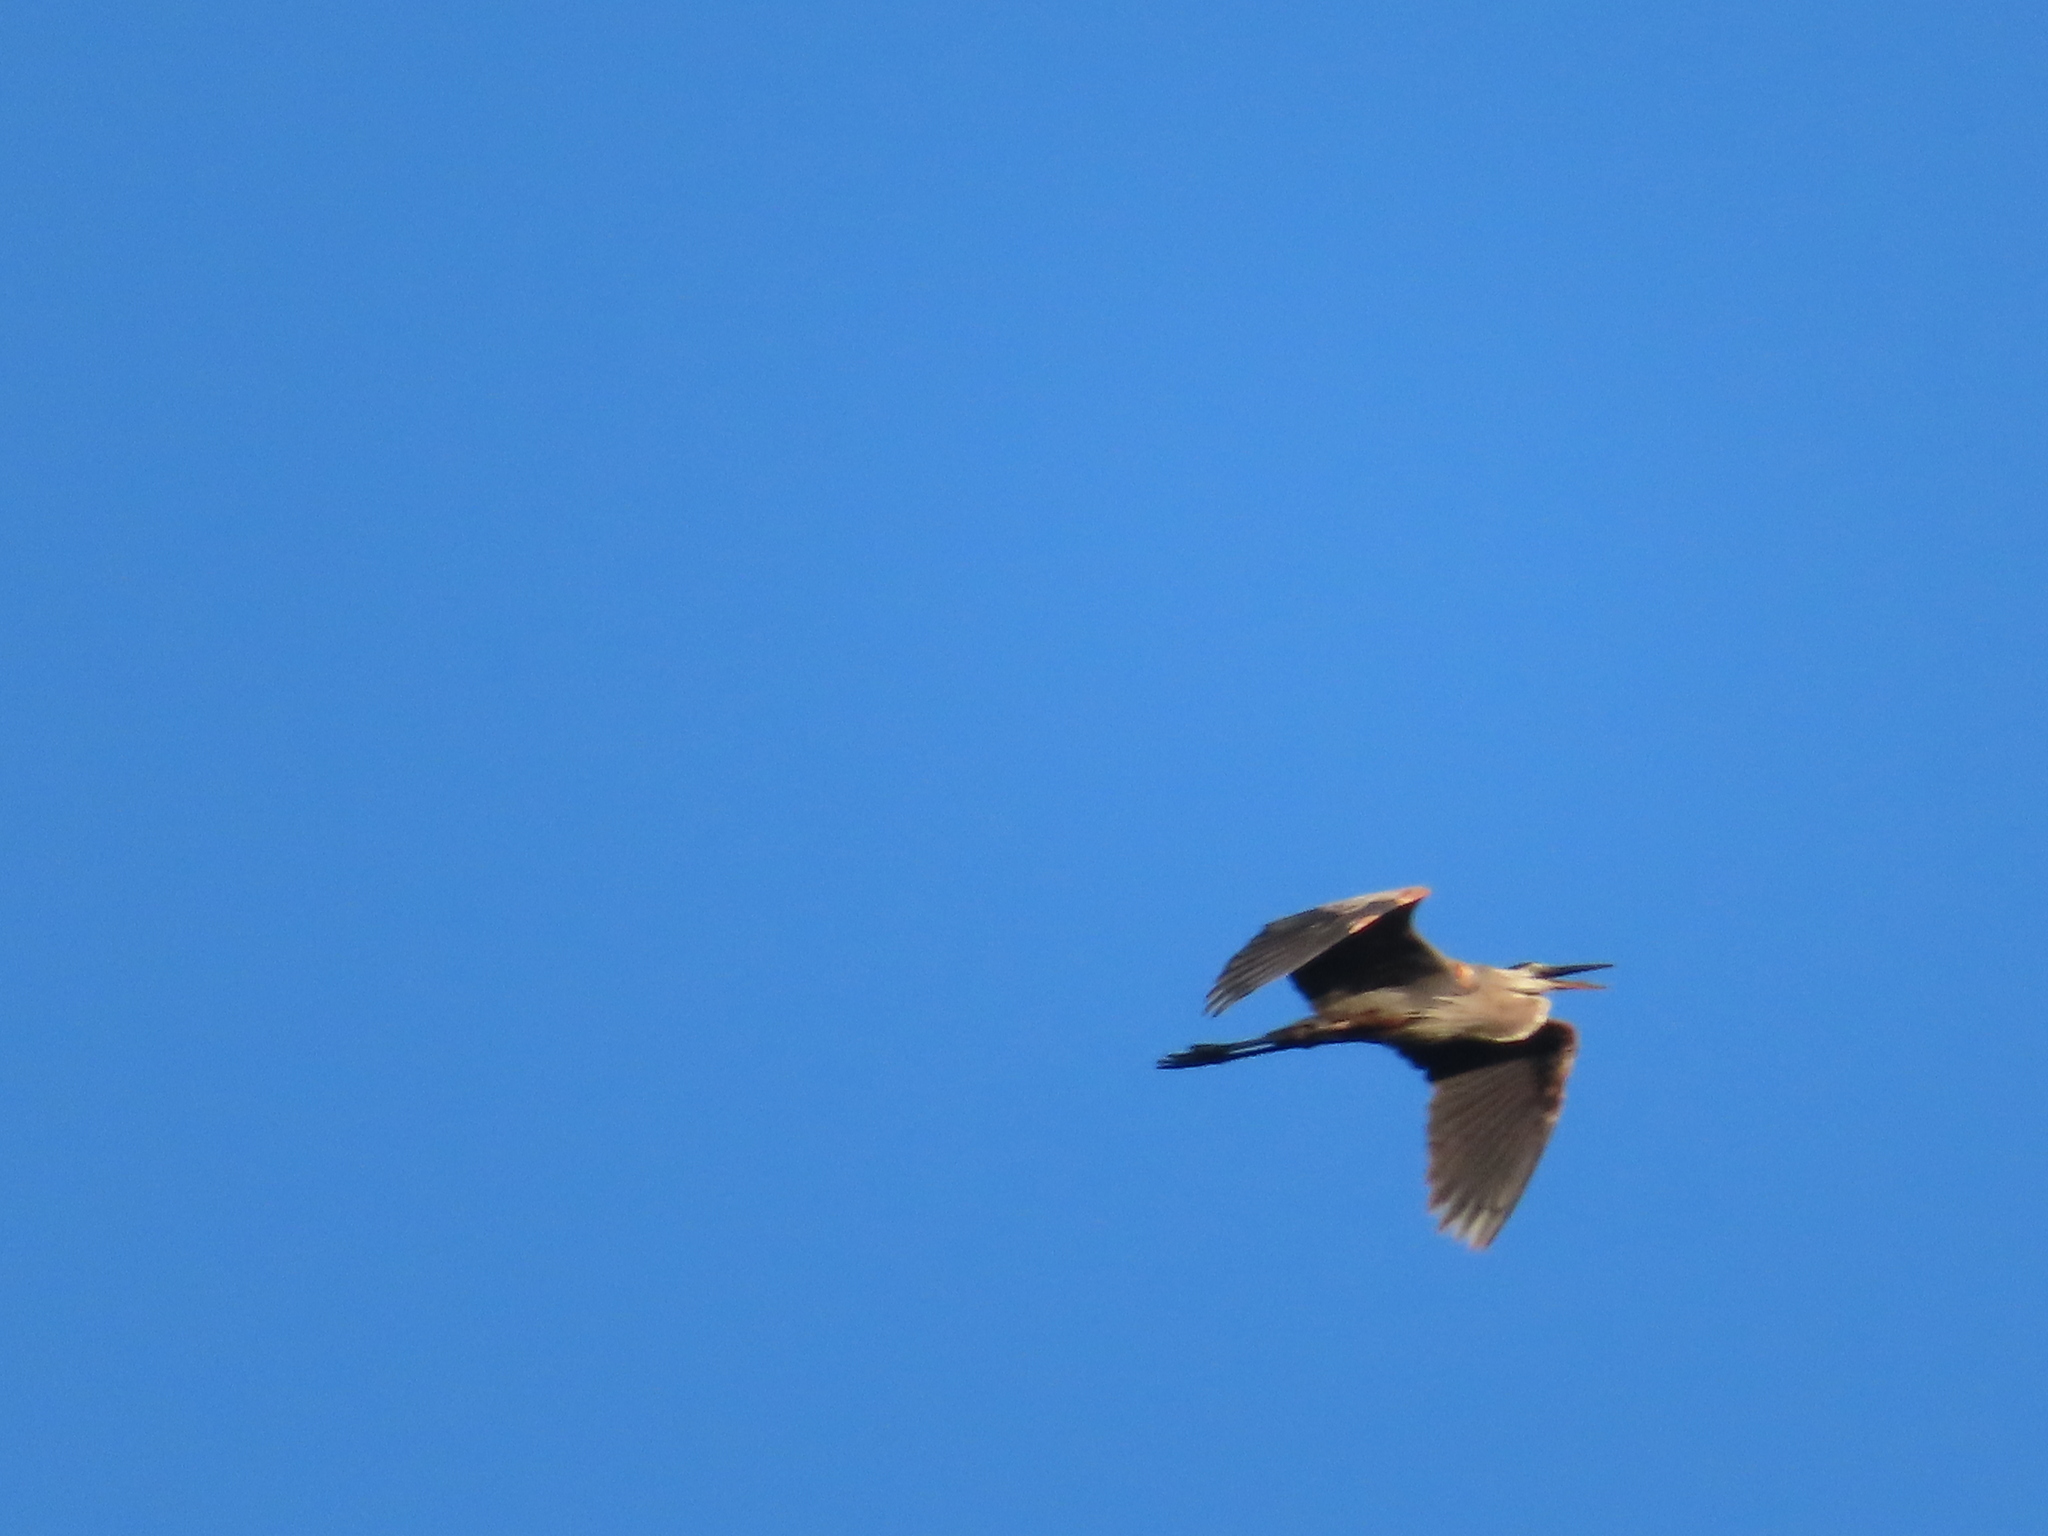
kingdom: Animalia
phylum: Chordata
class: Aves
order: Pelecaniformes
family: Ardeidae
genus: Ardea
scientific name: Ardea herodias
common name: Great blue heron
